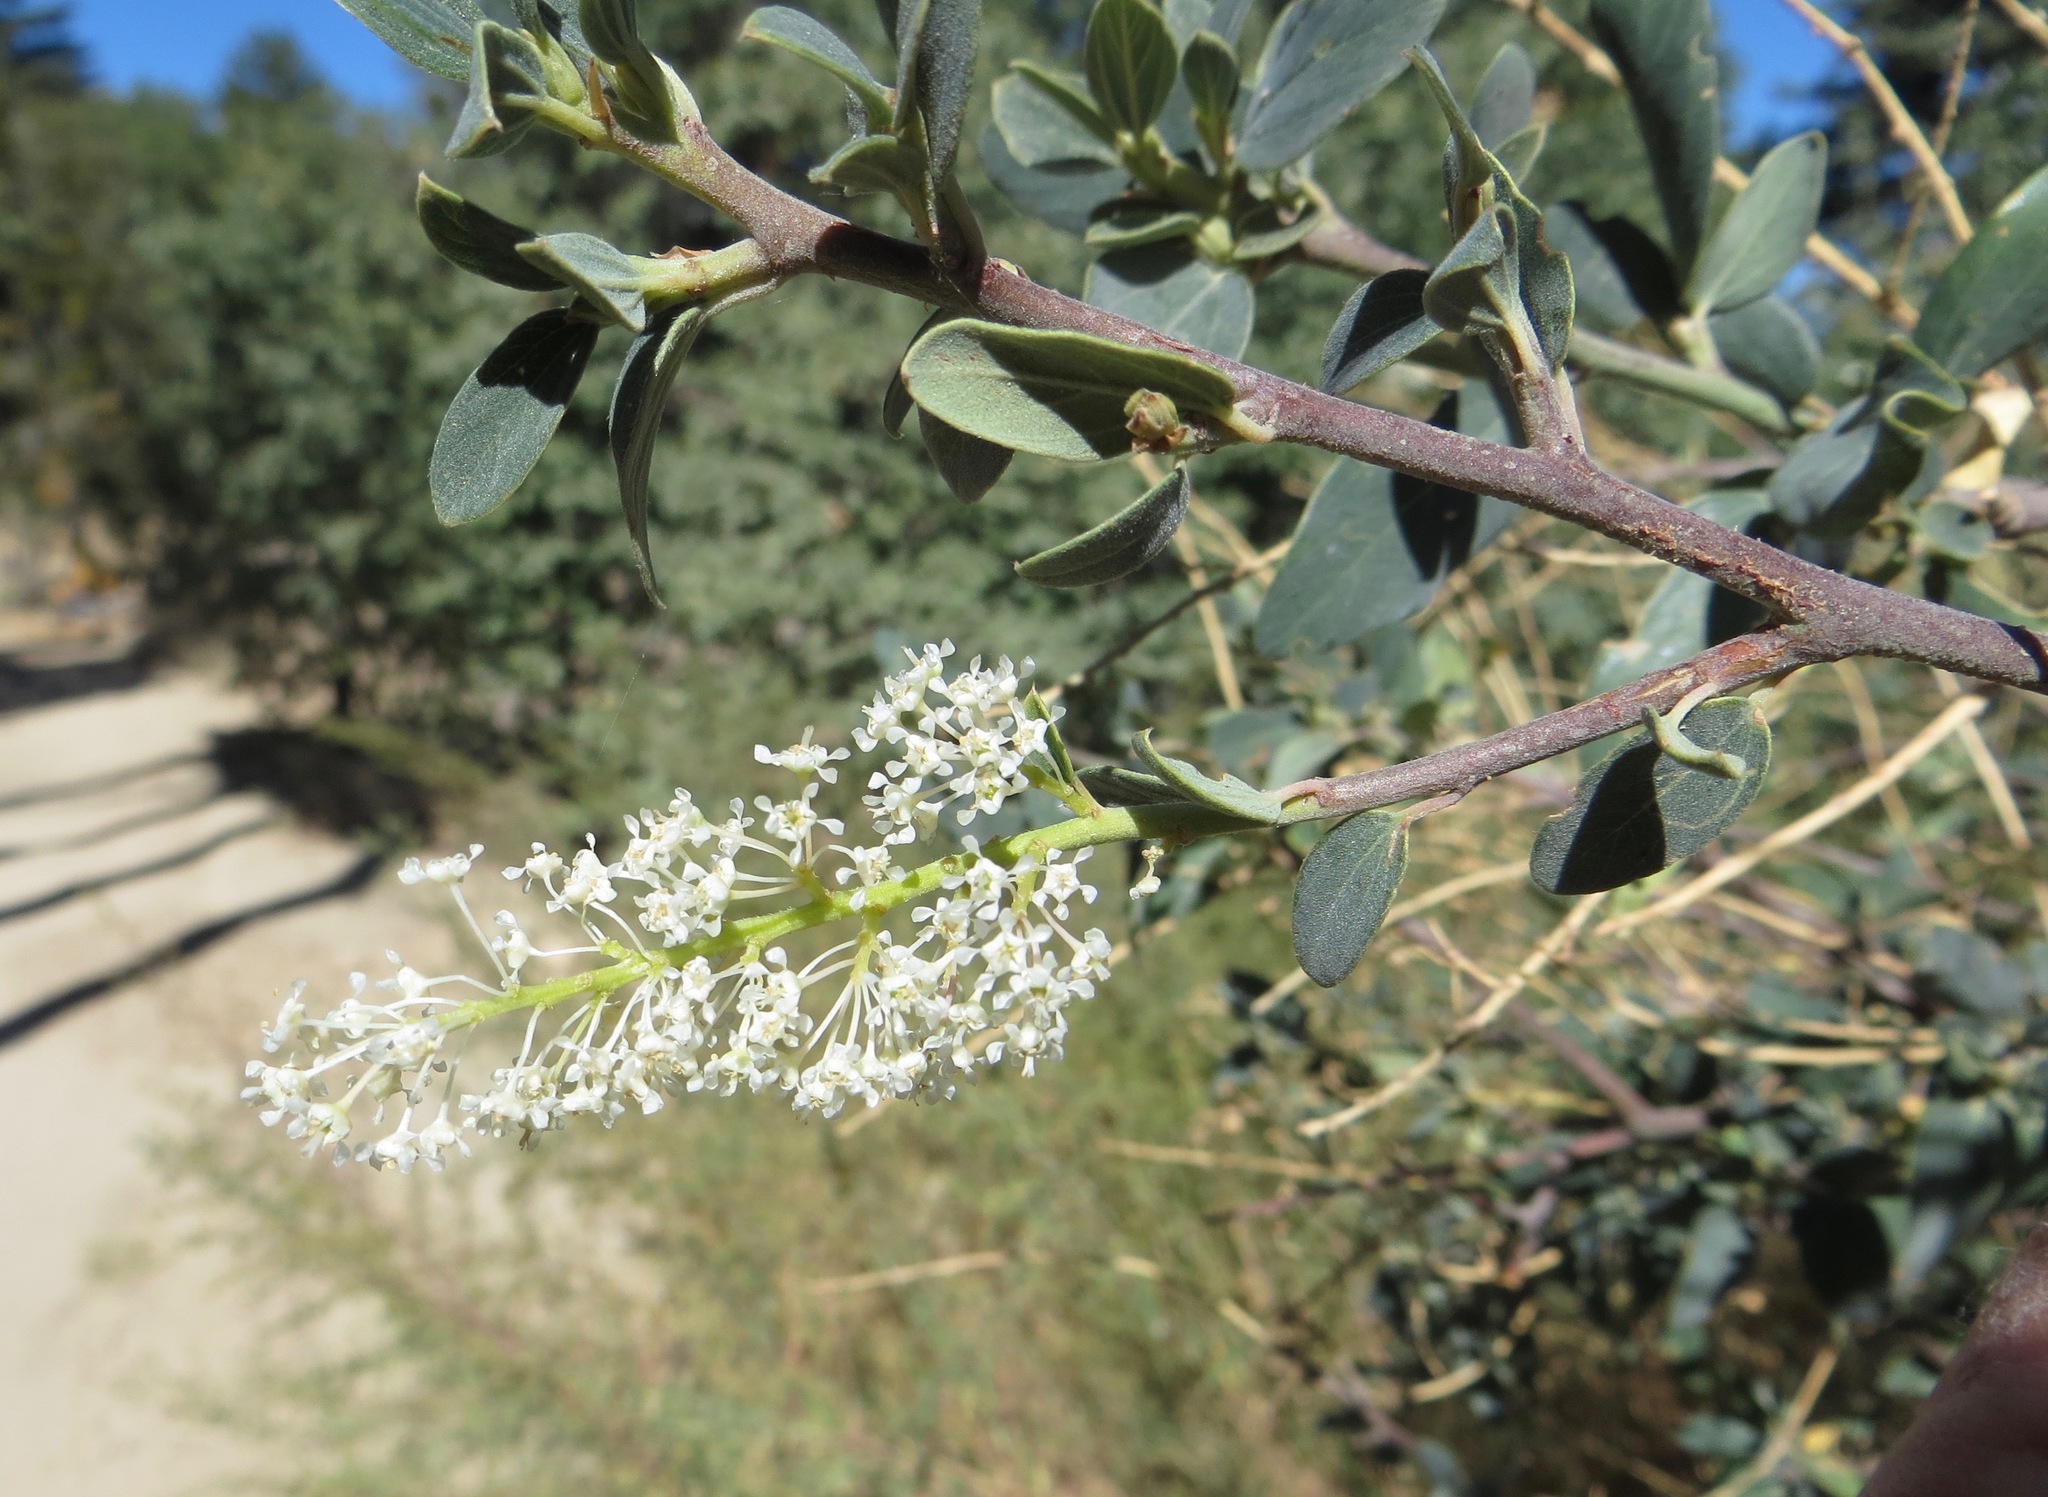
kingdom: Plantae
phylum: Tracheophyta
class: Magnoliopsida
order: Rosales
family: Rhamnaceae
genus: Ceanothus
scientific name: Ceanothus integerrimus
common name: Deerbrush ceanothus
